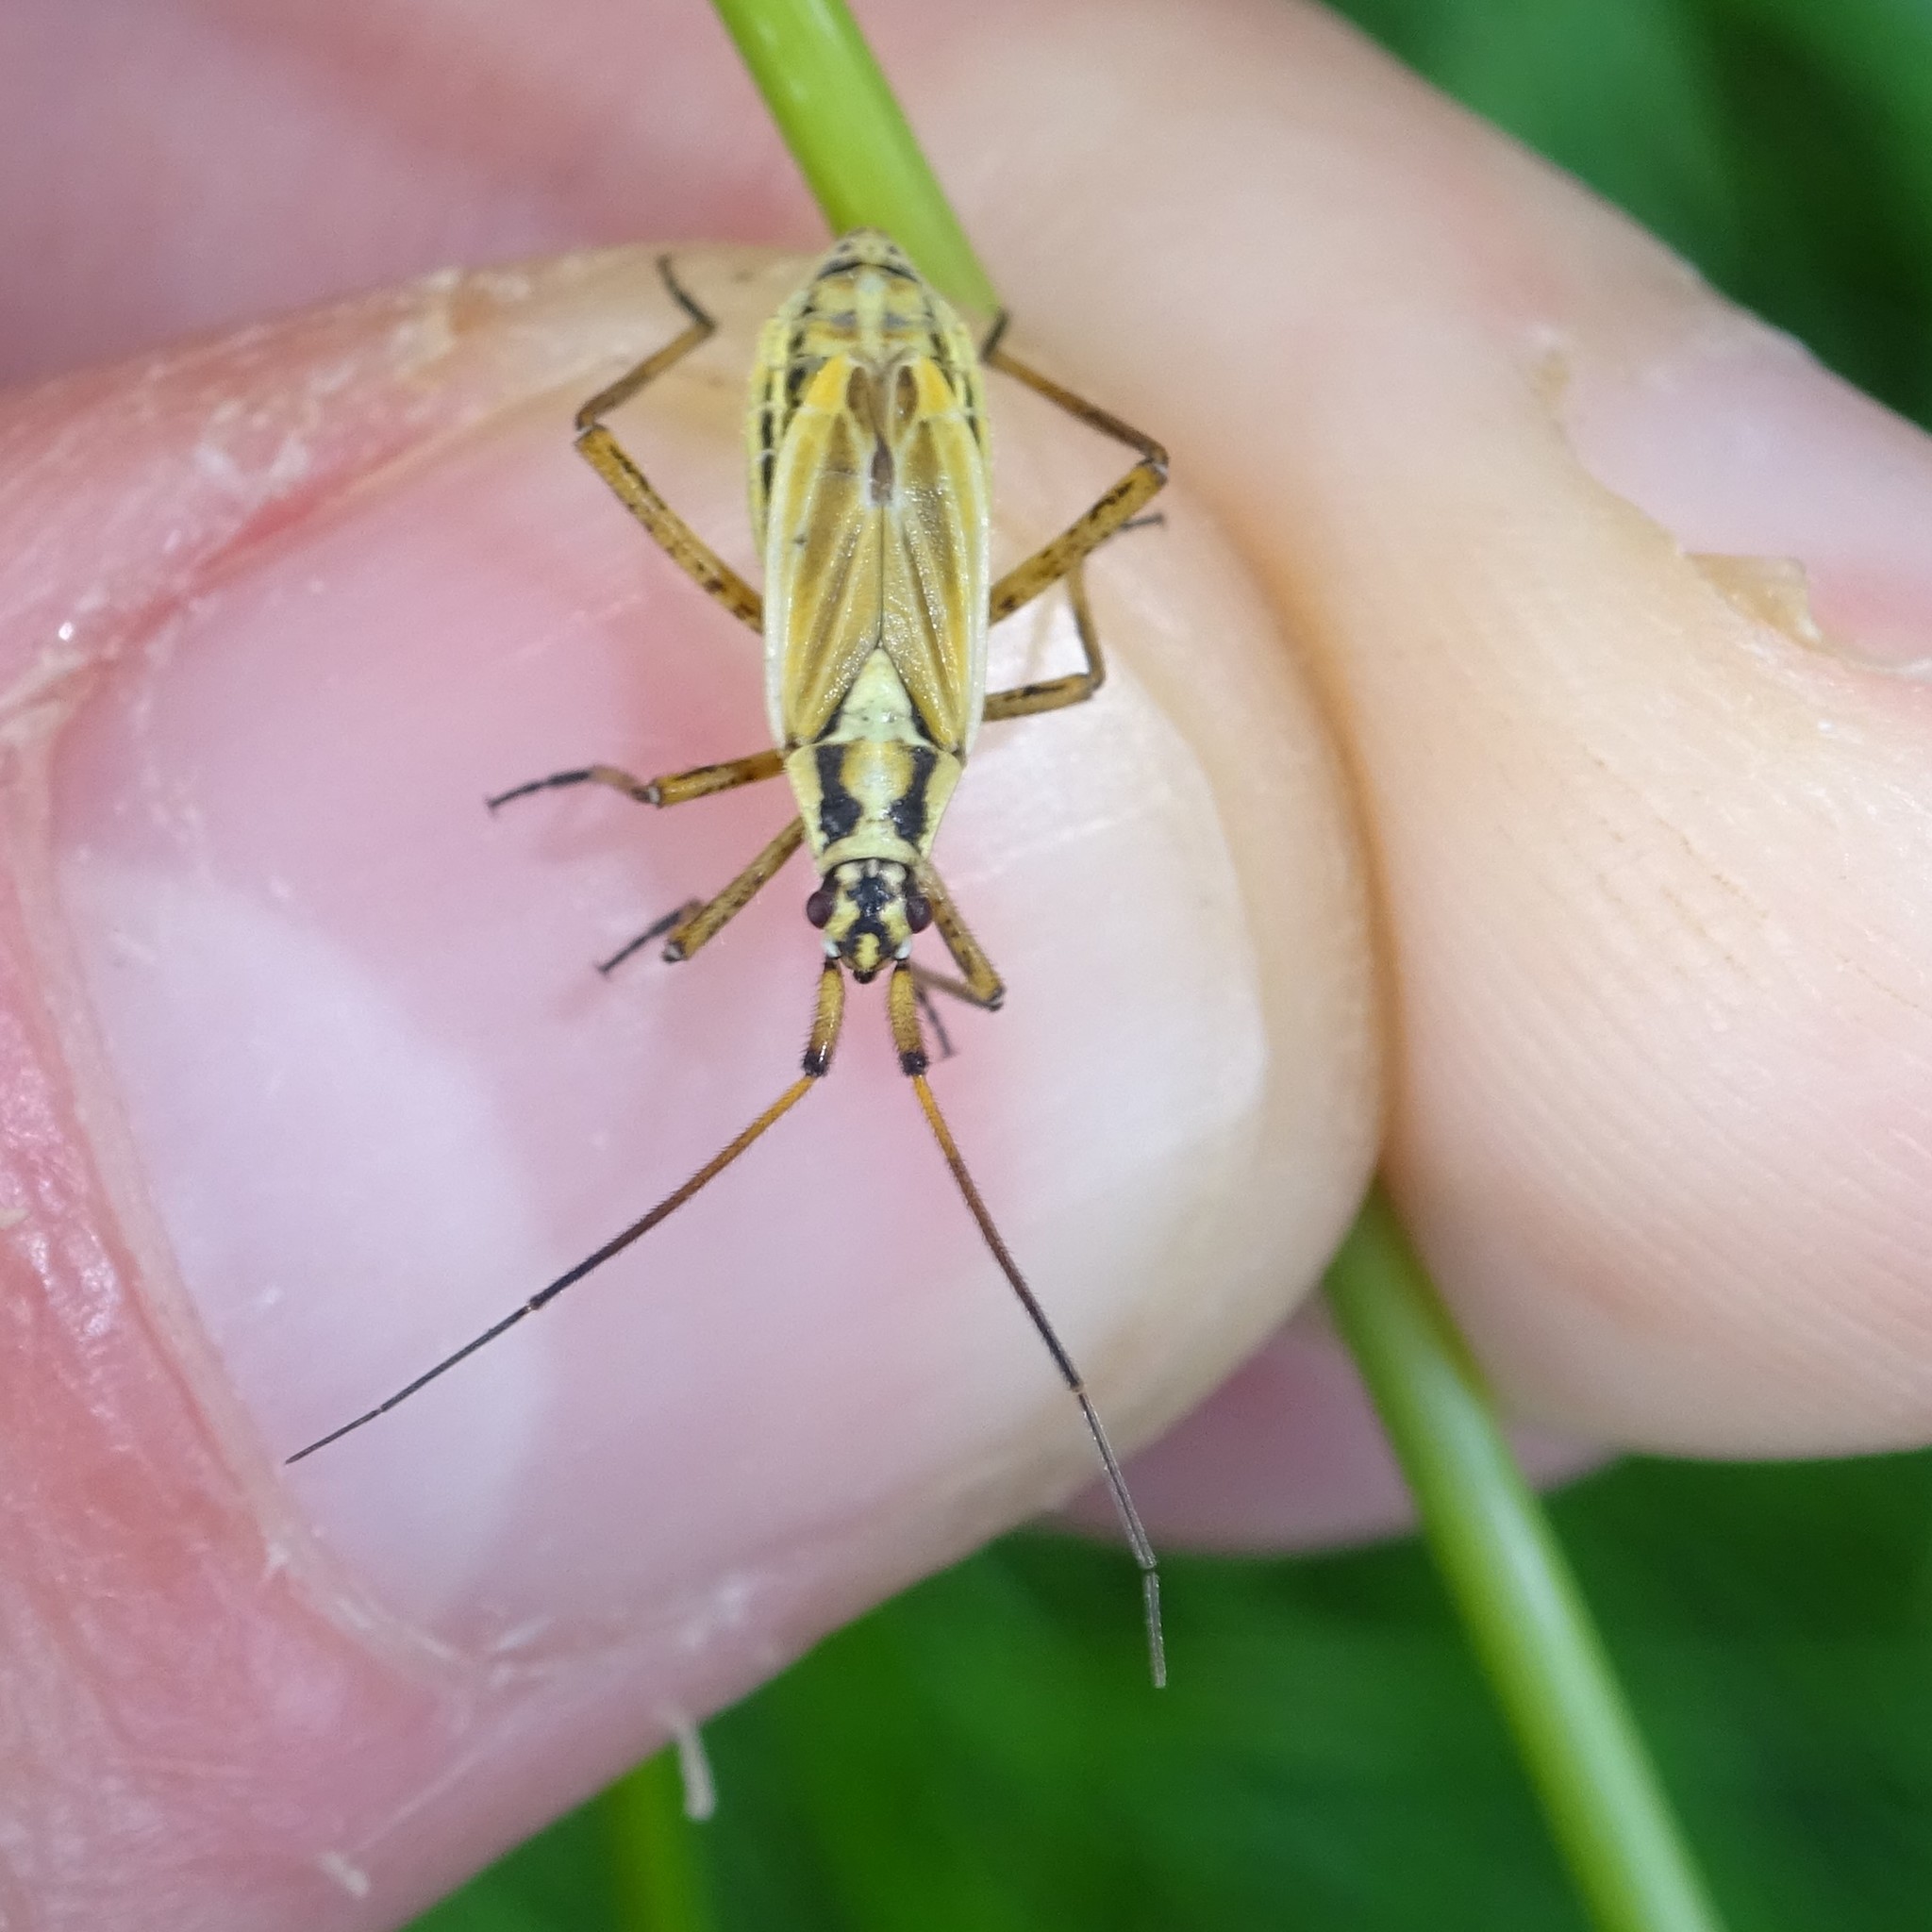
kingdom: Animalia
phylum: Arthropoda
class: Insecta
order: Hemiptera
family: Miridae
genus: Leptopterna
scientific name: Leptopterna dolabrata
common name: Meadow plant bug
